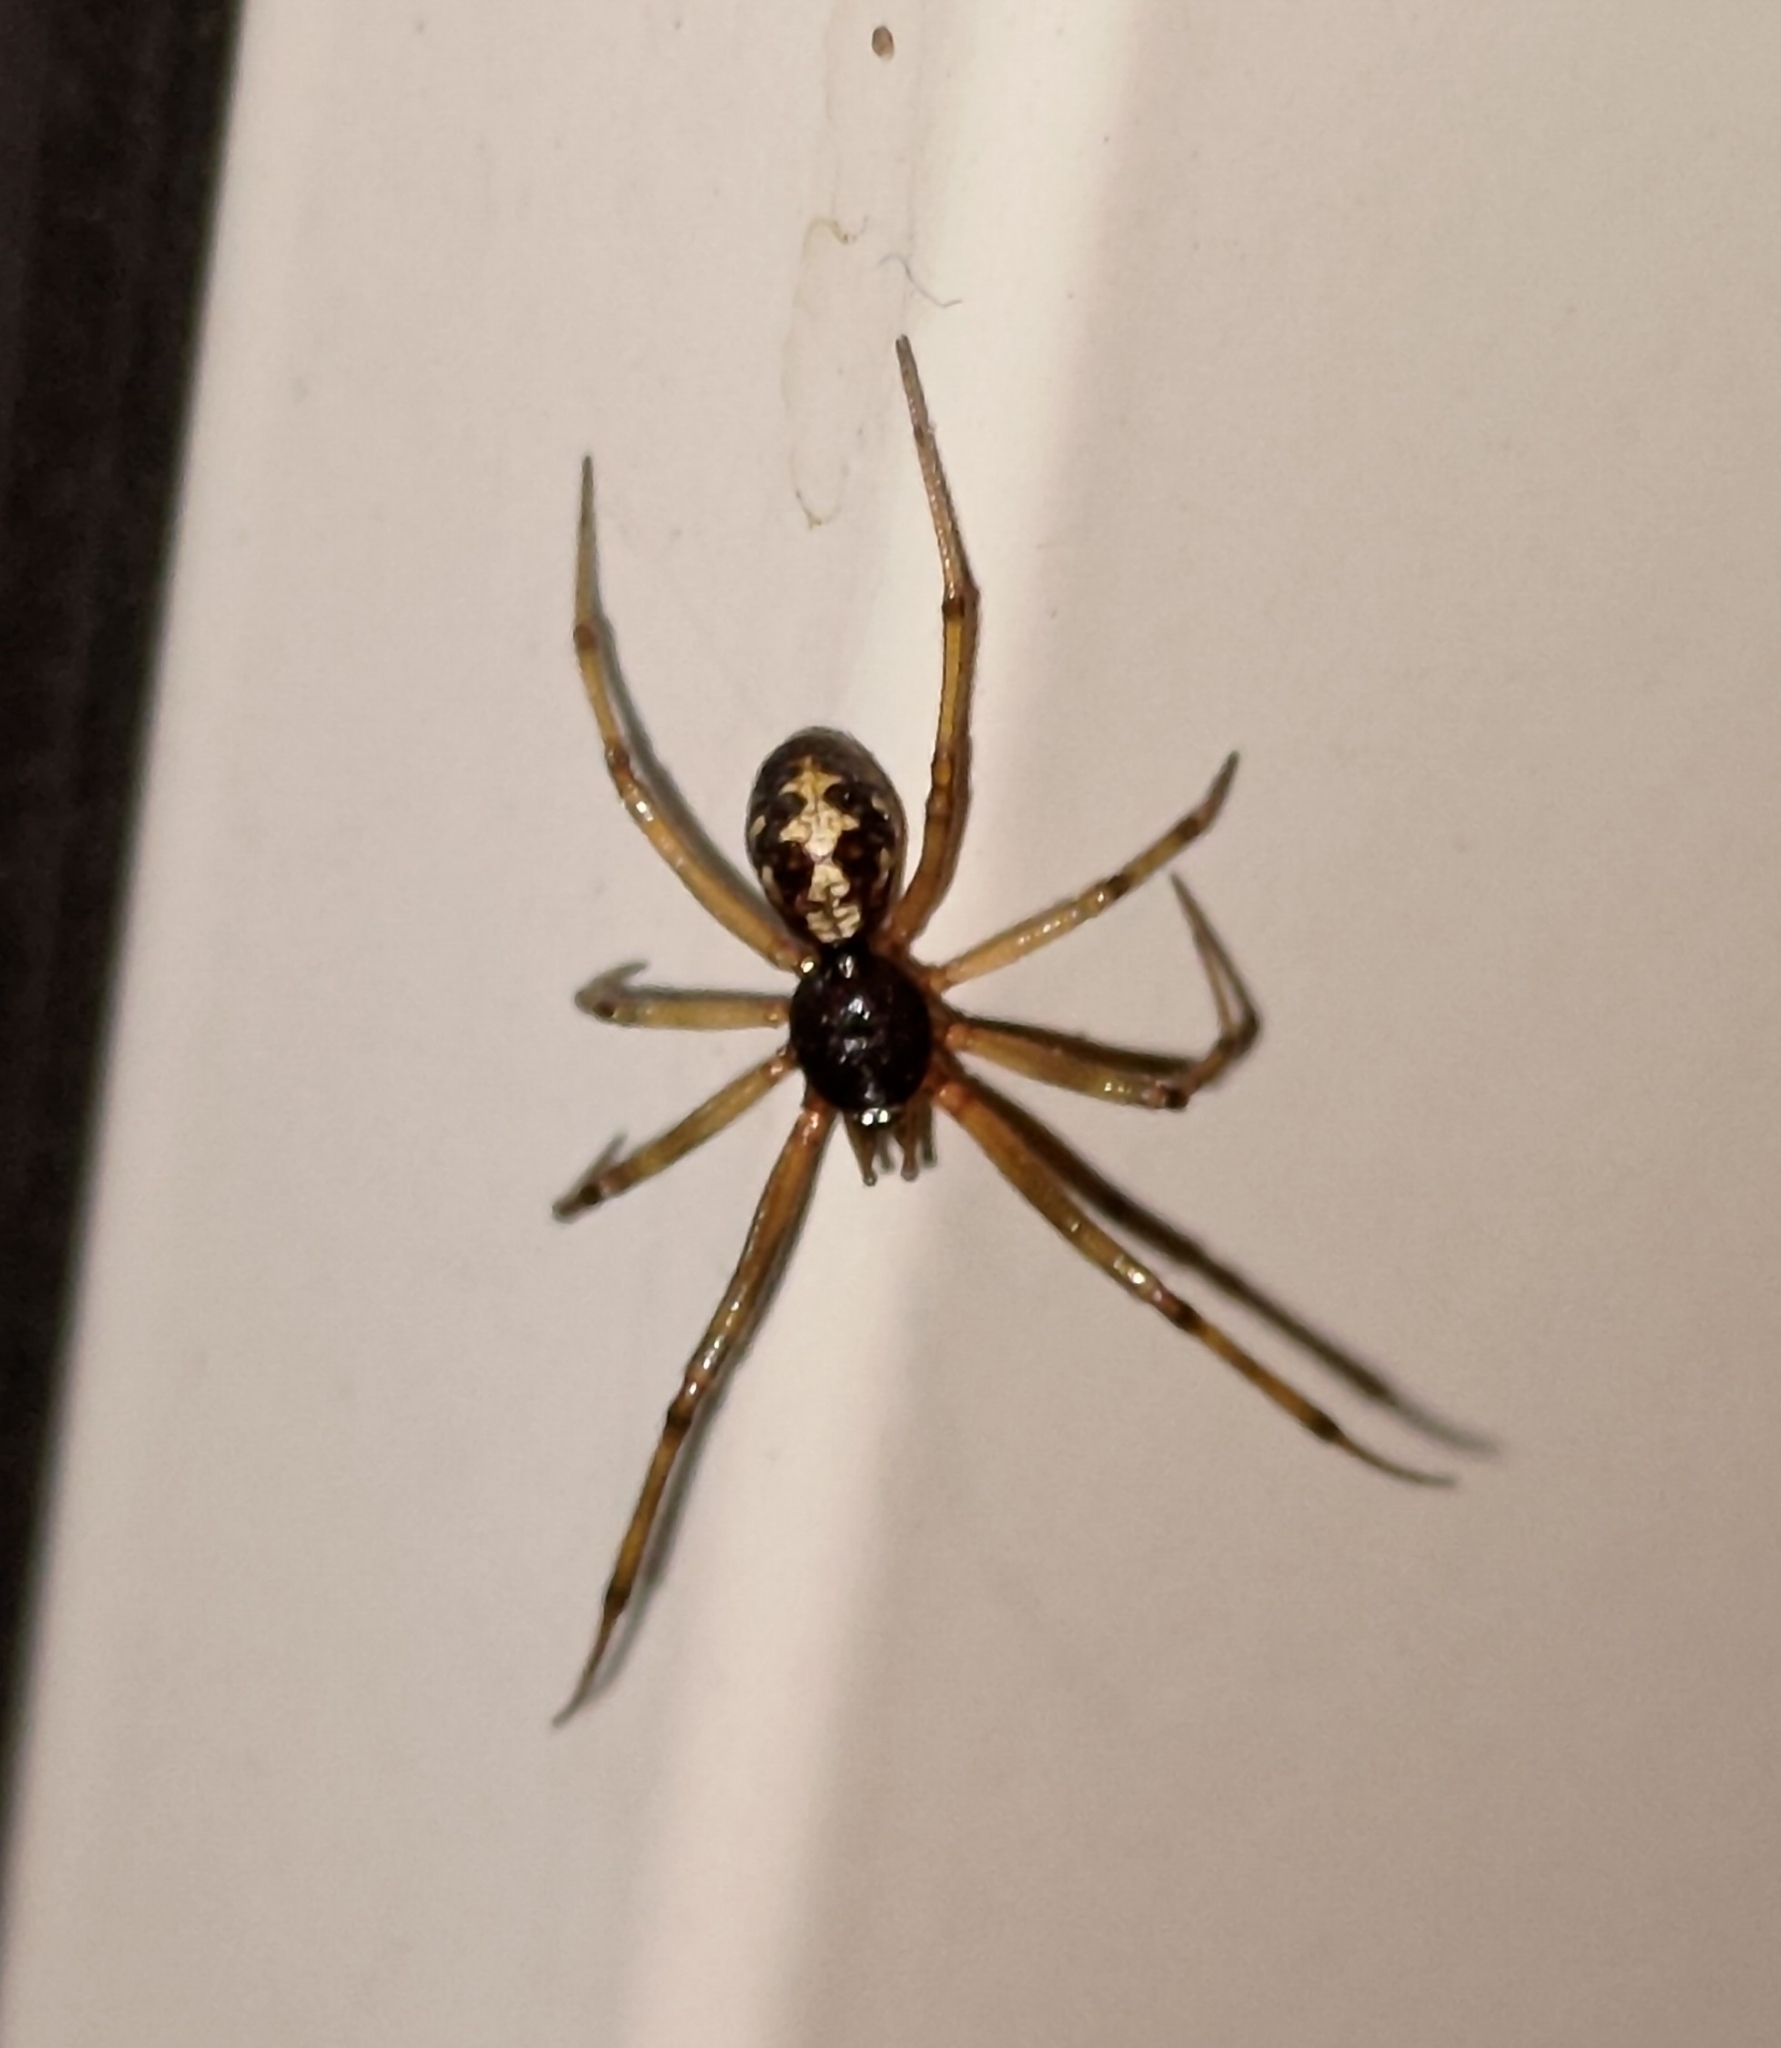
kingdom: Animalia
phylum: Arthropoda
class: Arachnida
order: Araneae
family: Theridiidae
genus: Steatoda
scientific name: Steatoda triangulosa
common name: Triangulate bud spider
